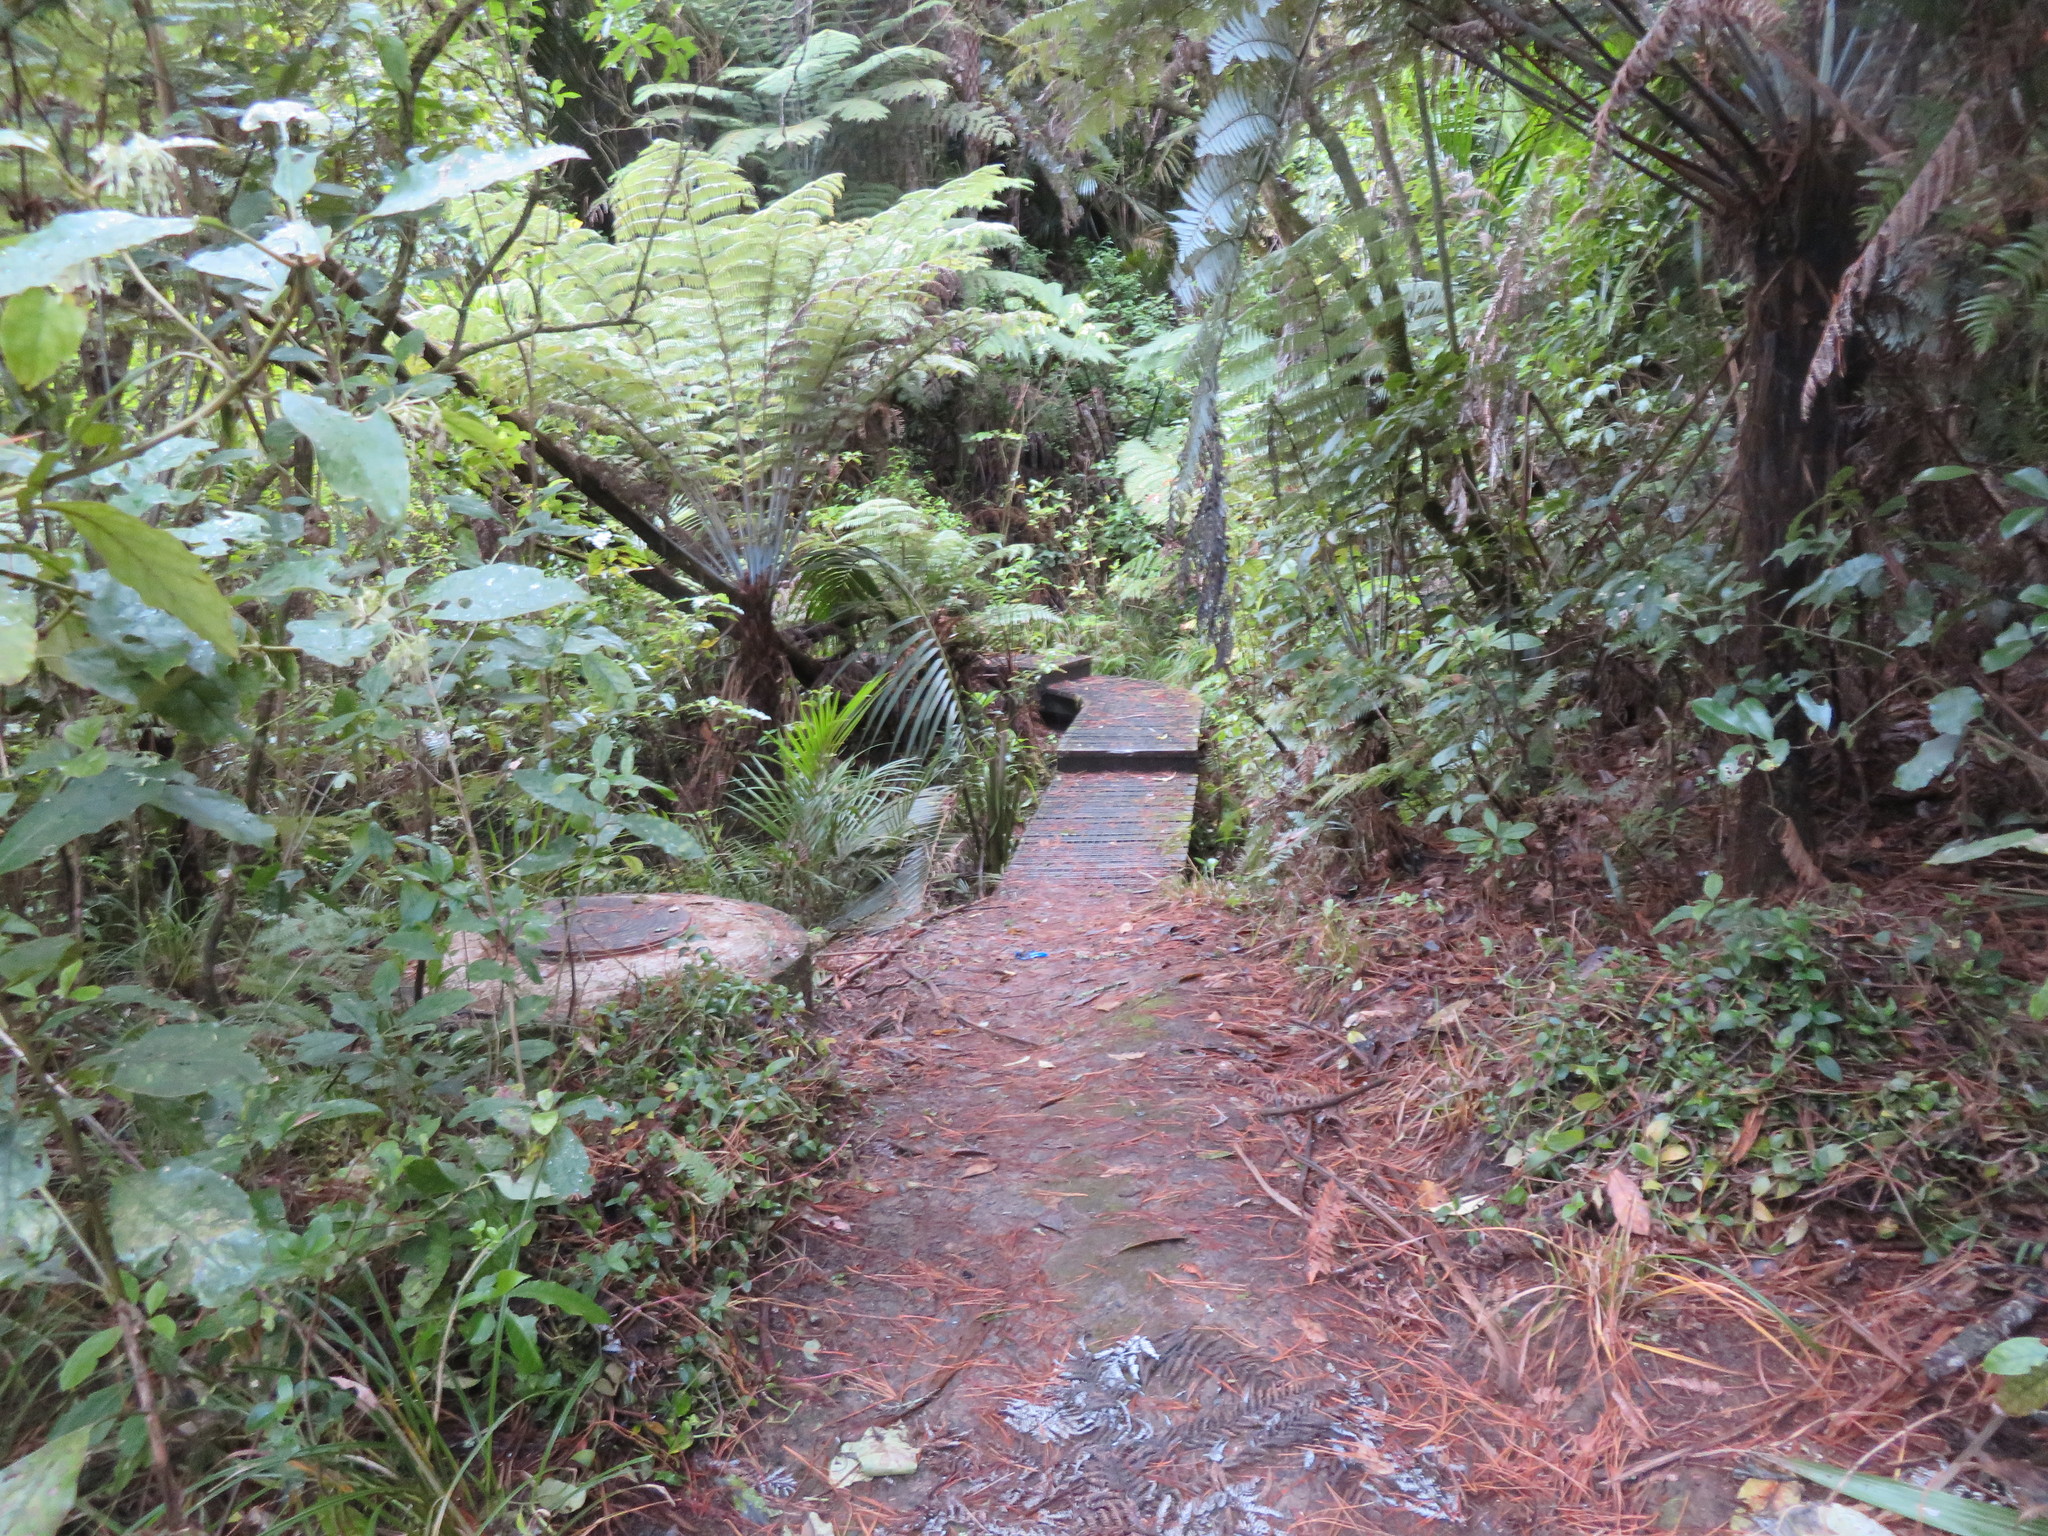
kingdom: Plantae
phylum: Tracheophyta
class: Liliopsida
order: Commelinales
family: Commelinaceae
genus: Tradescantia
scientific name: Tradescantia fluminensis
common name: Wandering-jew
